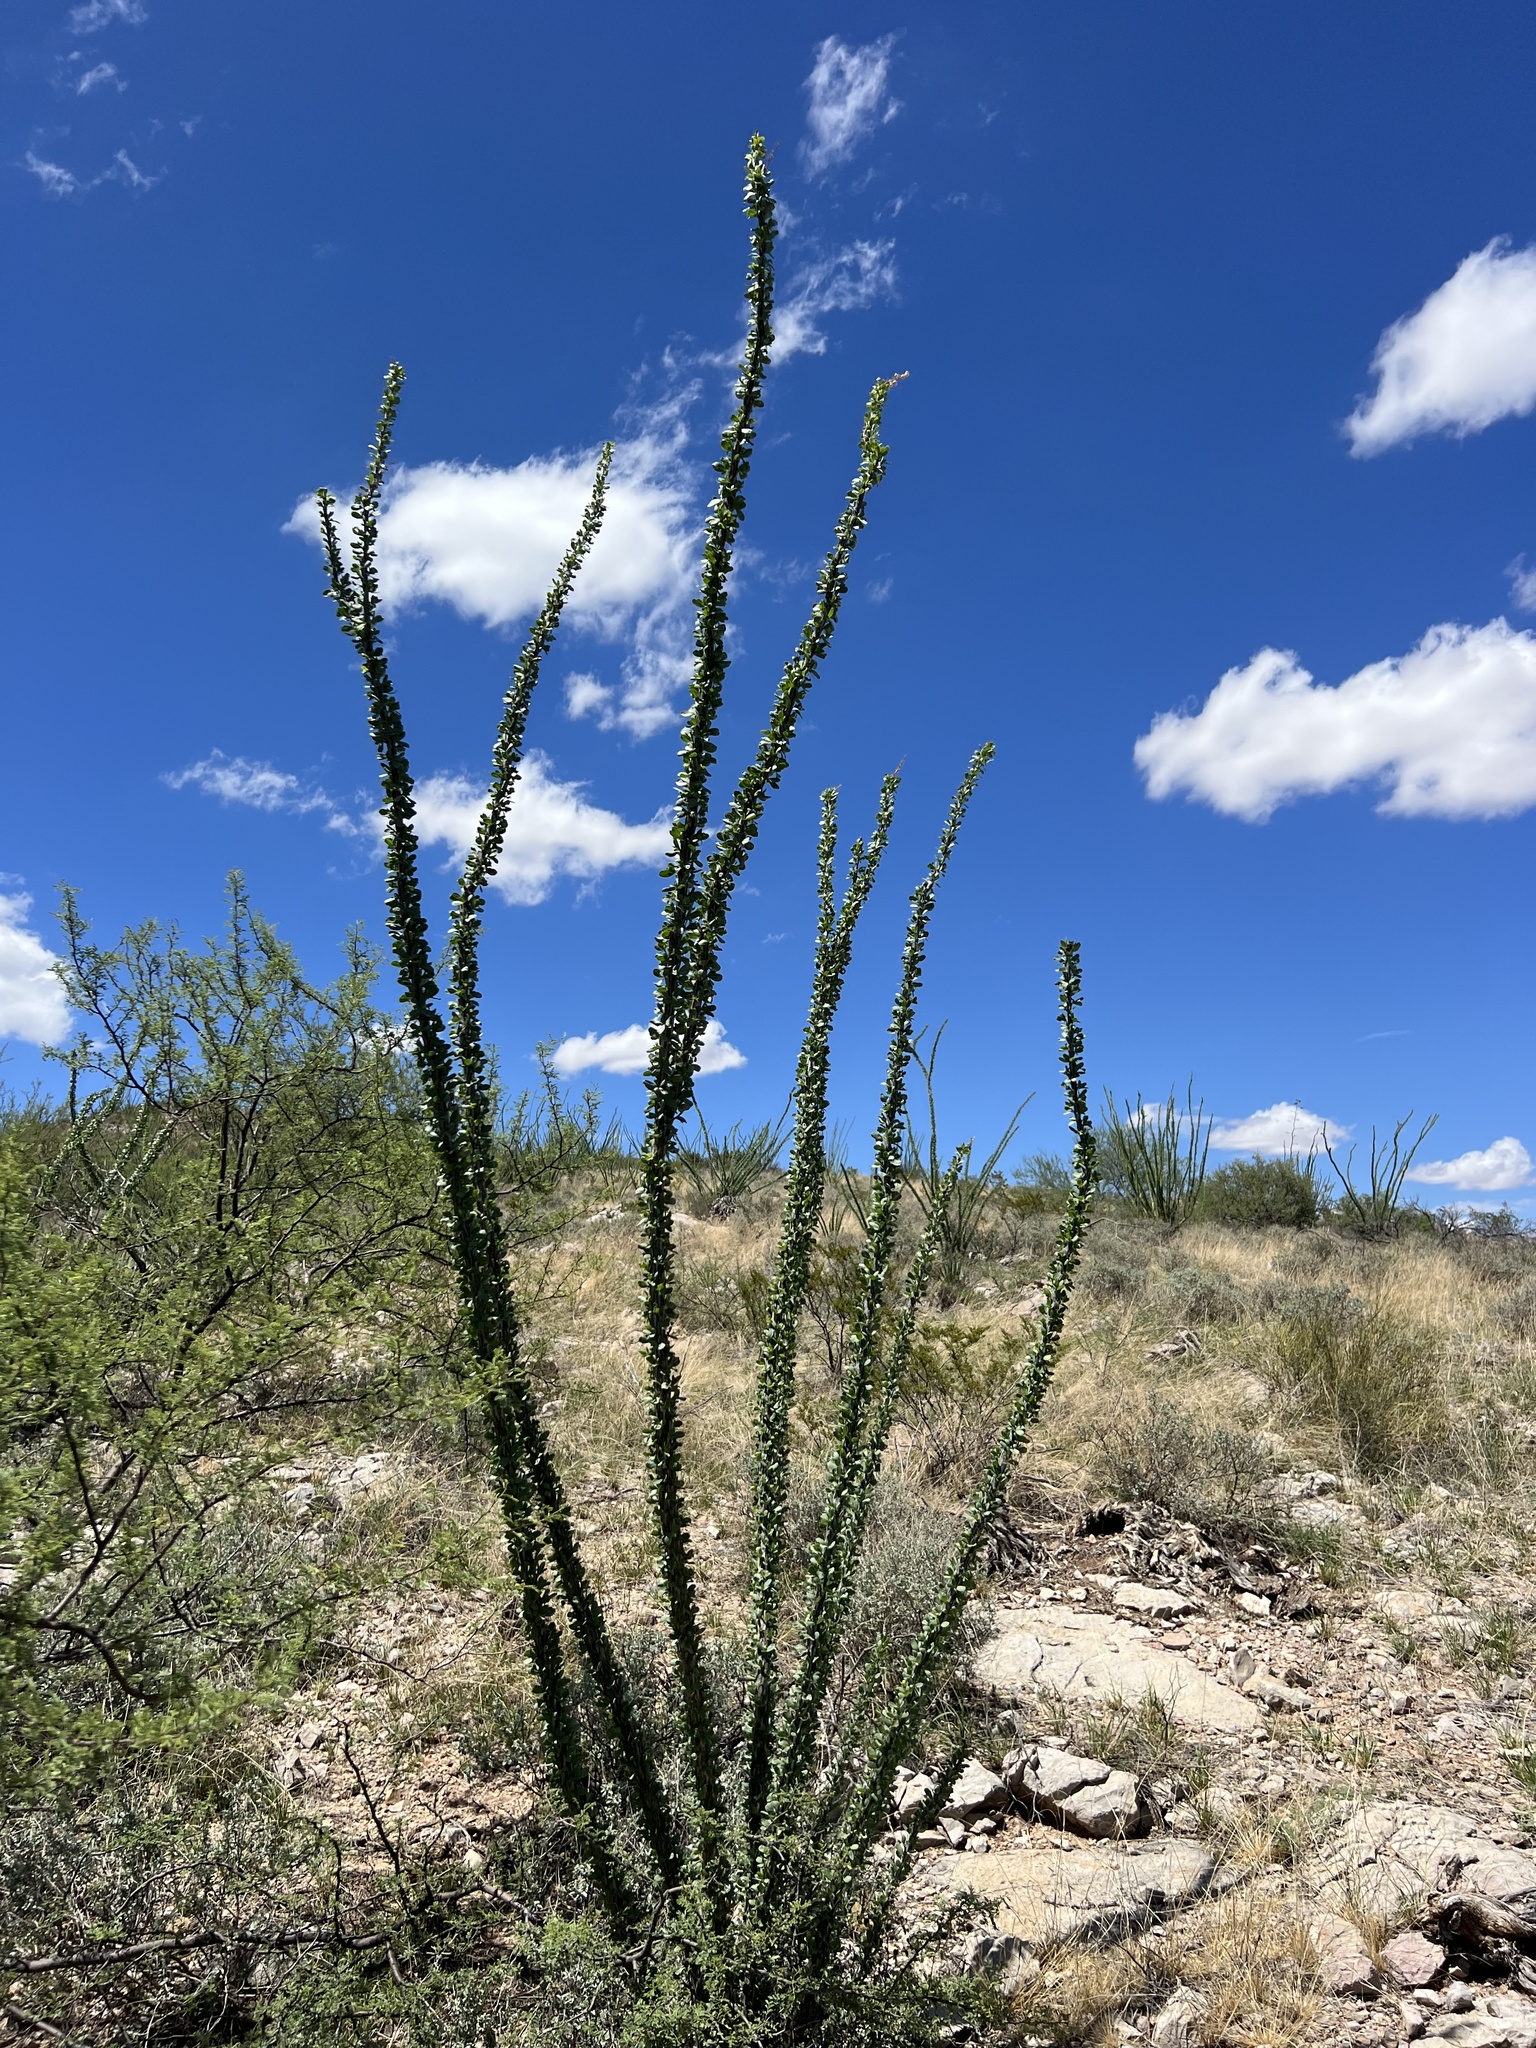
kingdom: Plantae
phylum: Tracheophyta
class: Magnoliopsida
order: Ericales
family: Fouquieriaceae
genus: Fouquieria
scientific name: Fouquieria splendens
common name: Vine-cactus
